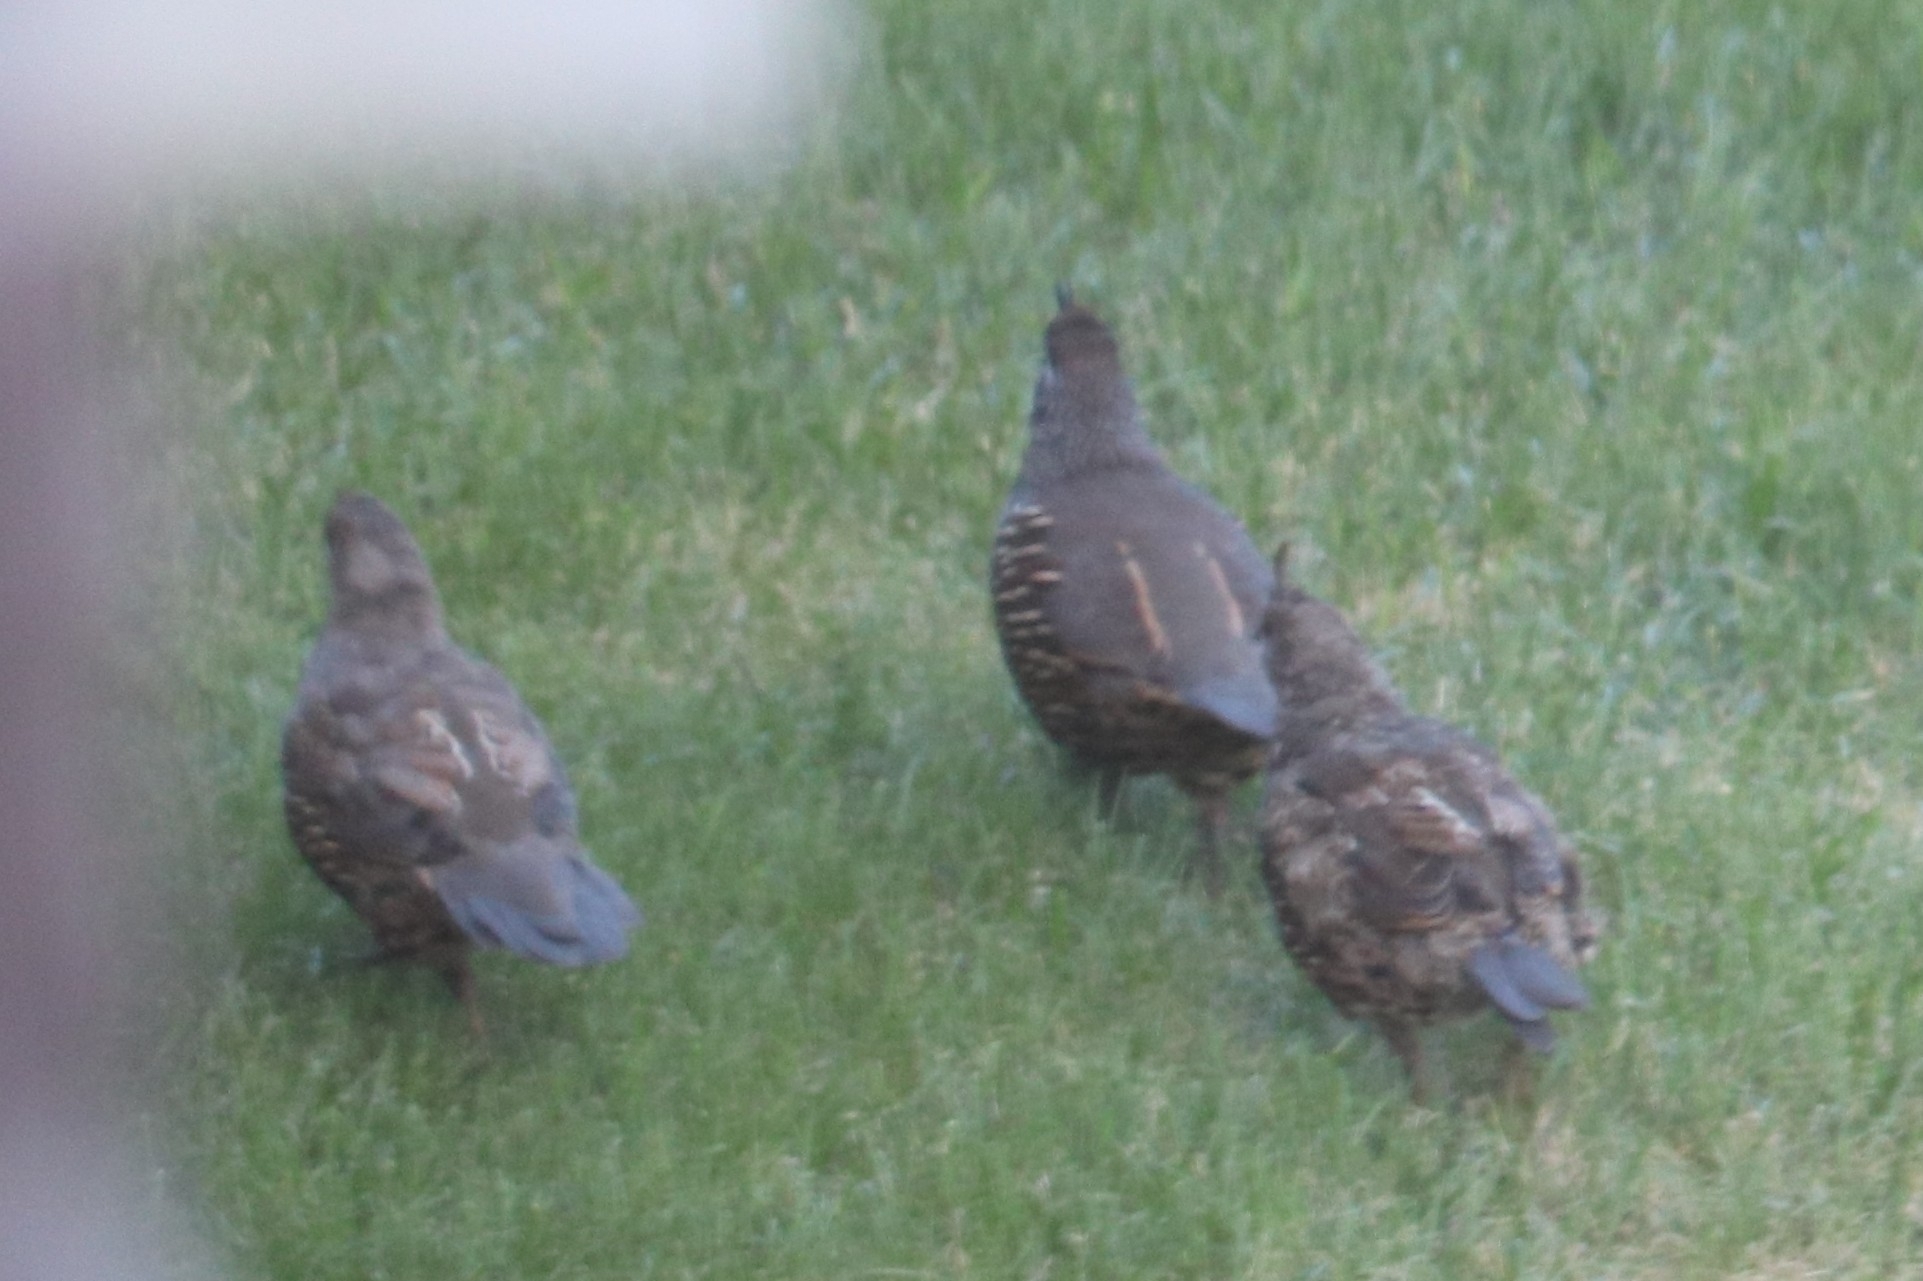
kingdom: Animalia
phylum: Chordata
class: Aves
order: Galliformes
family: Odontophoridae
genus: Callipepla
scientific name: Callipepla californica
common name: California quail
